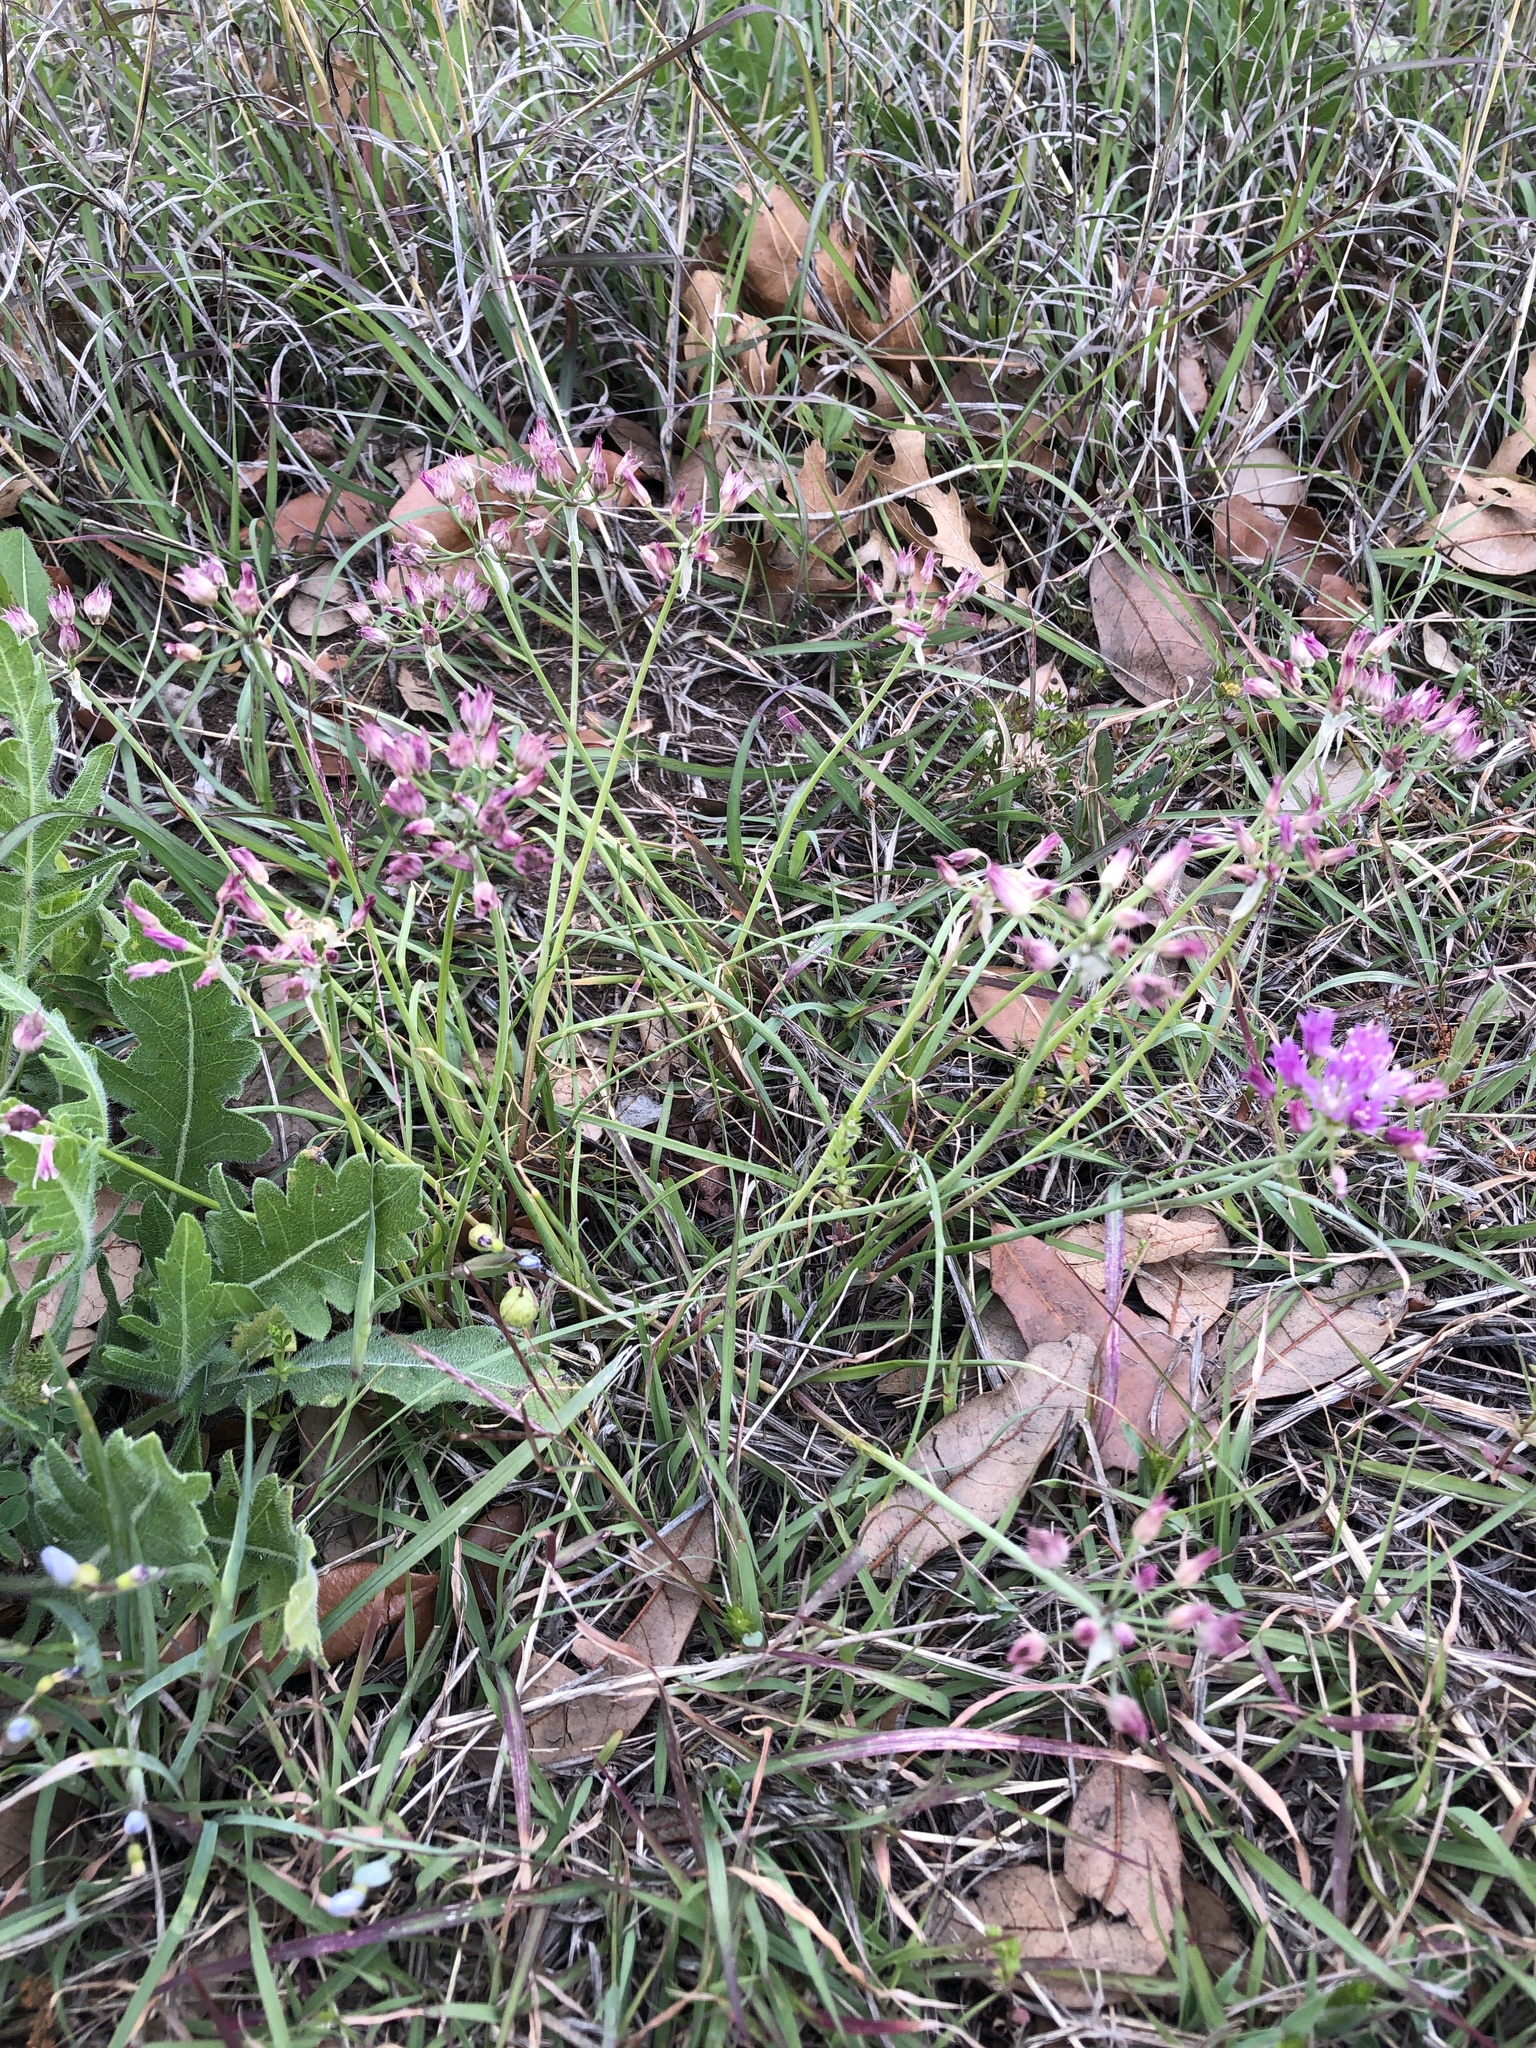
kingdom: Plantae
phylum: Tracheophyta
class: Liliopsida
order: Asparagales
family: Amaryllidaceae
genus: Allium
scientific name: Allium drummondii
